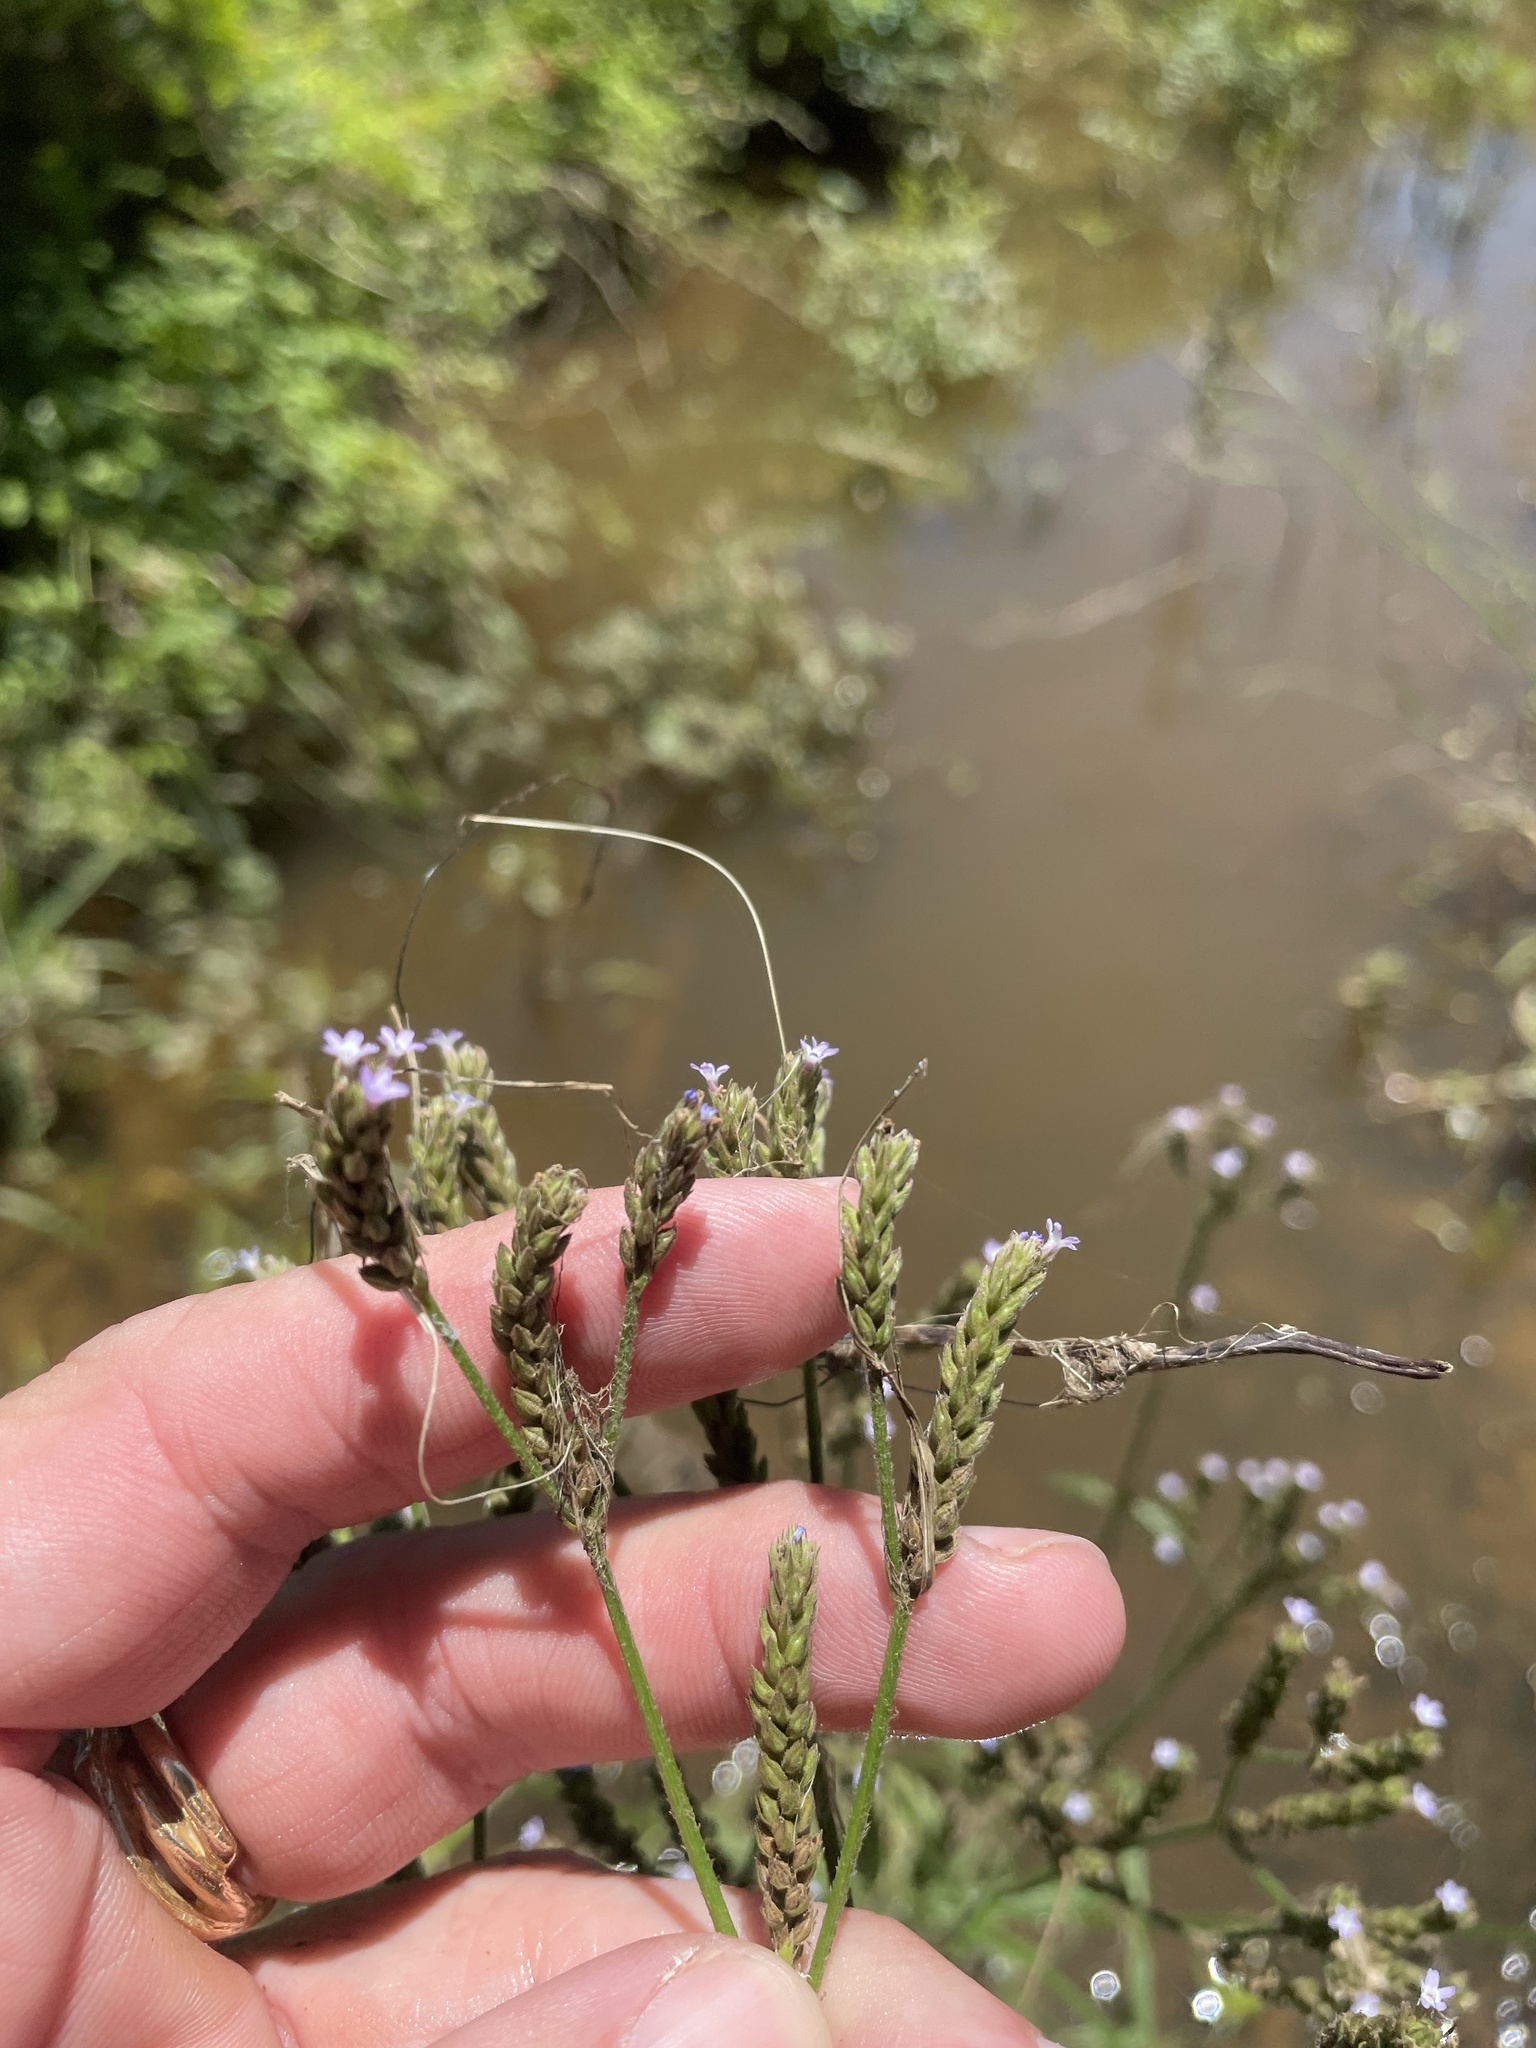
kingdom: Plantae
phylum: Tracheophyta
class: Magnoliopsida
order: Lamiales
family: Verbenaceae
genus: Verbena
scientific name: Verbena brasiliensis
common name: Brazilian vervain
